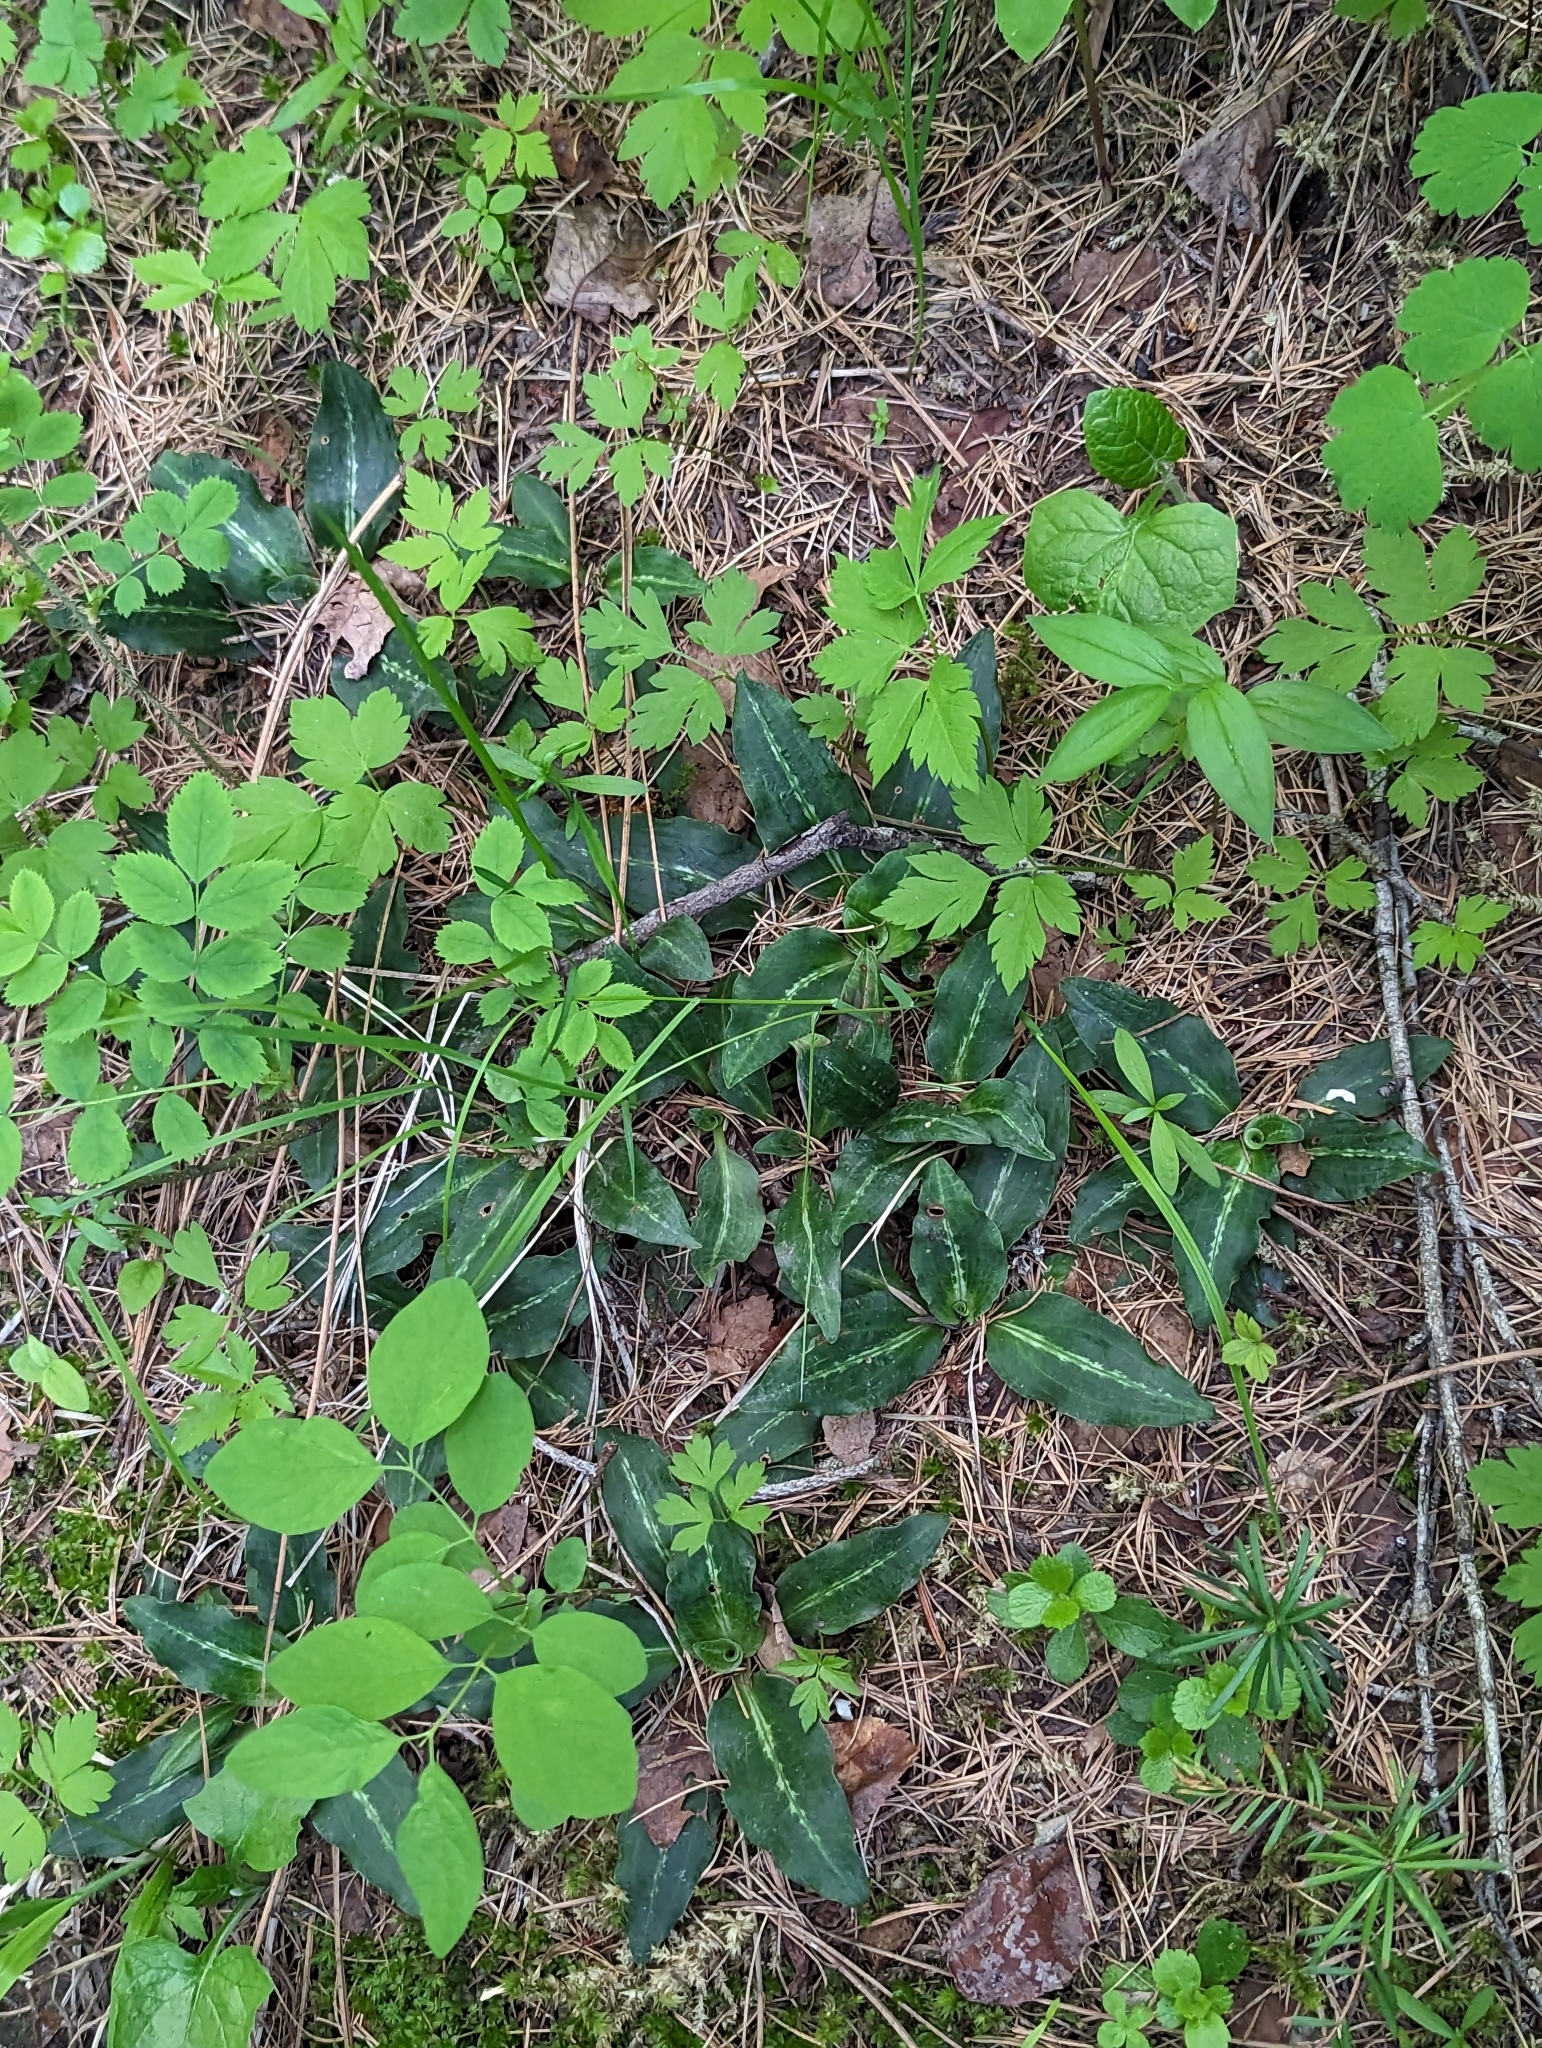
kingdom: Plantae
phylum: Tracheophyta
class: Liliopsida
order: Asparagales
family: Orchidaceae
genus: Goodyera
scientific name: Goodyera oblongifolia
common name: Giant rattlesnake-plantain
